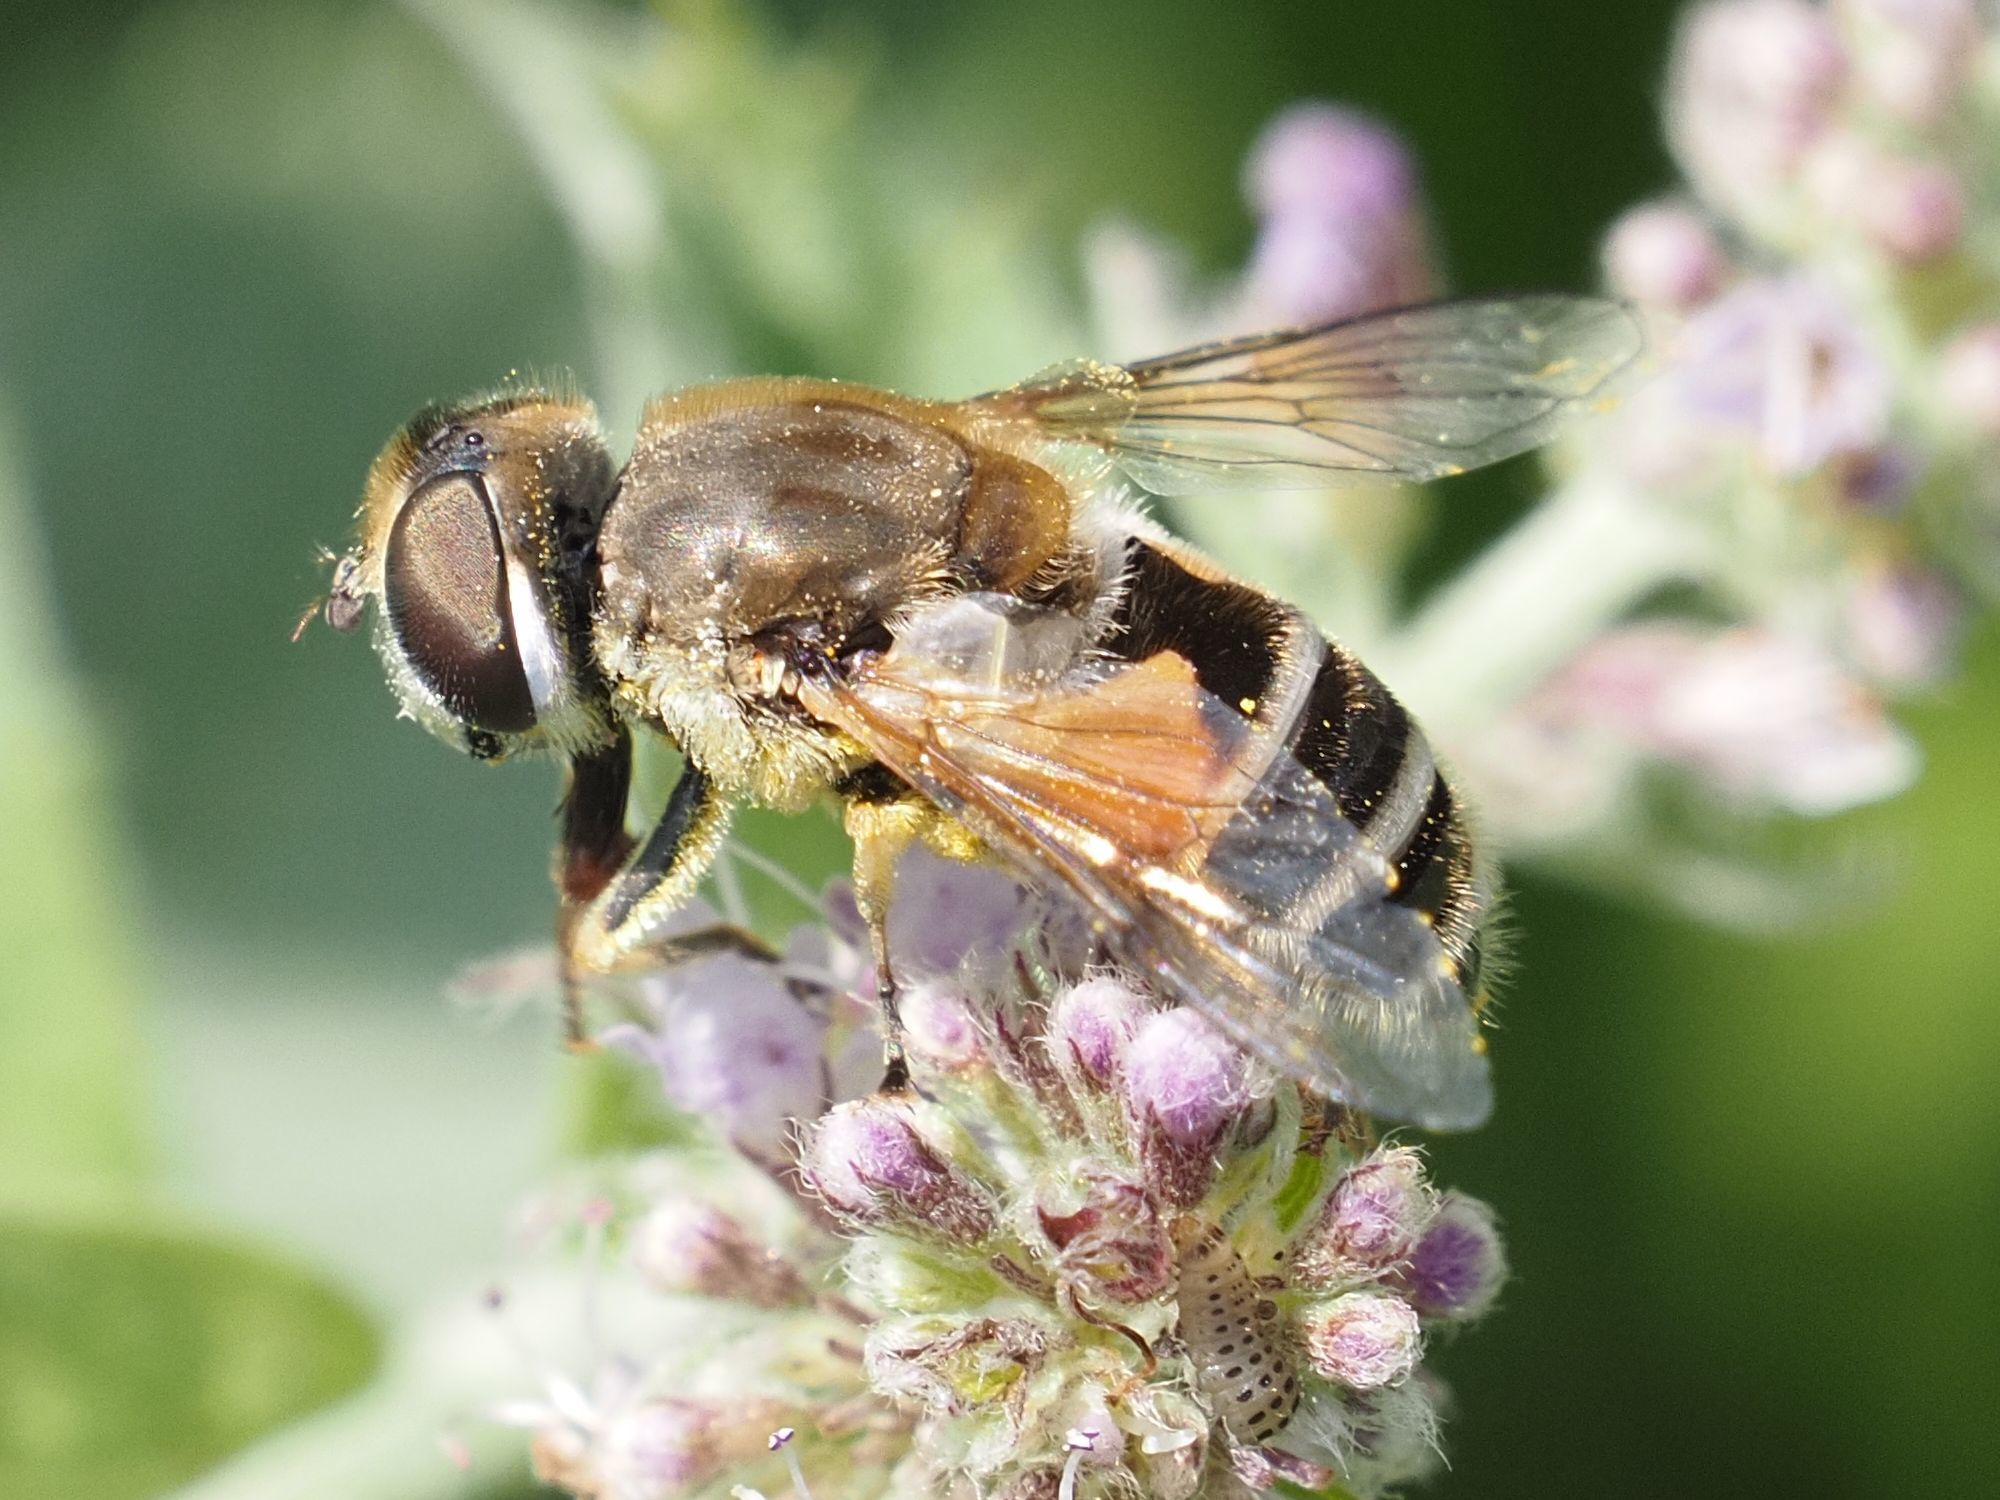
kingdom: Animalia
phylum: Arthropoda
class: Insecta
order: Diptera
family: Syrphidae
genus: Eristalis
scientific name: Eristalis arbustorum
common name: Hover fly
